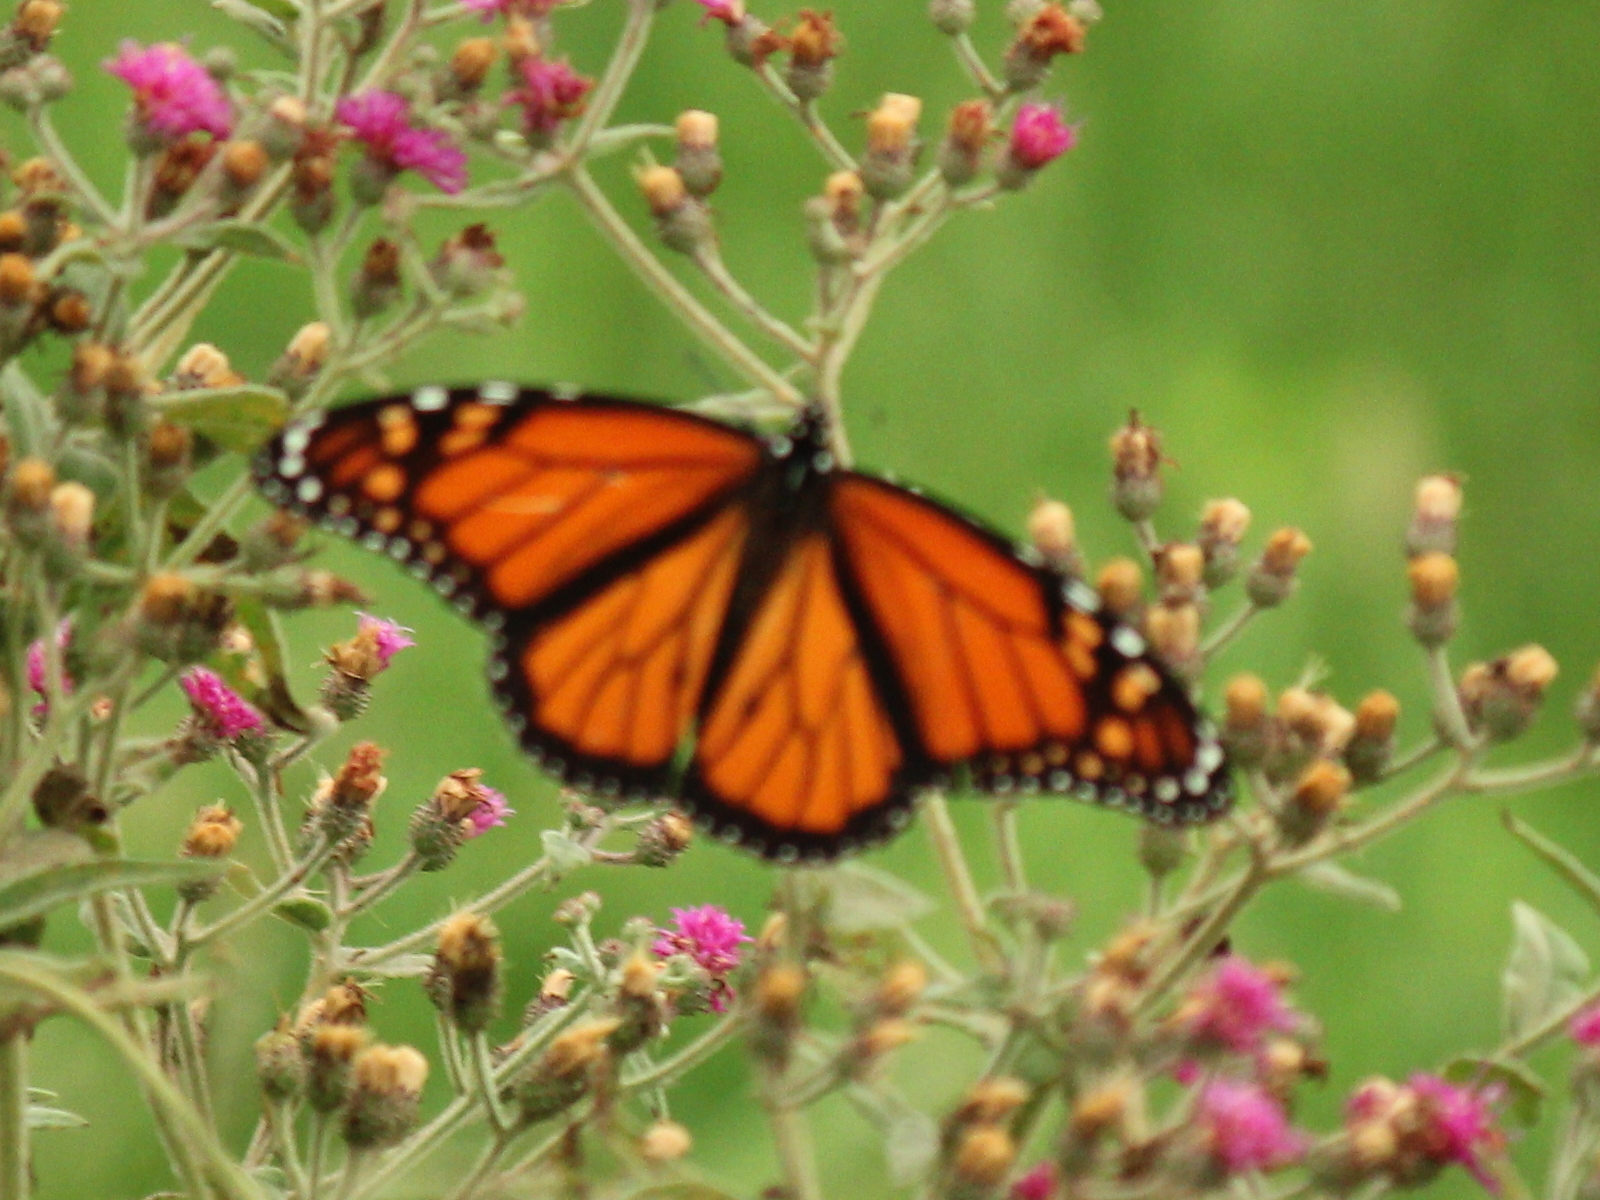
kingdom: Animalia
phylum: Arthropoda
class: Insecta
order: Lepidoptera
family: Nymphalidae
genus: Danaus
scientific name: Danaus plexippus
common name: Monarch
